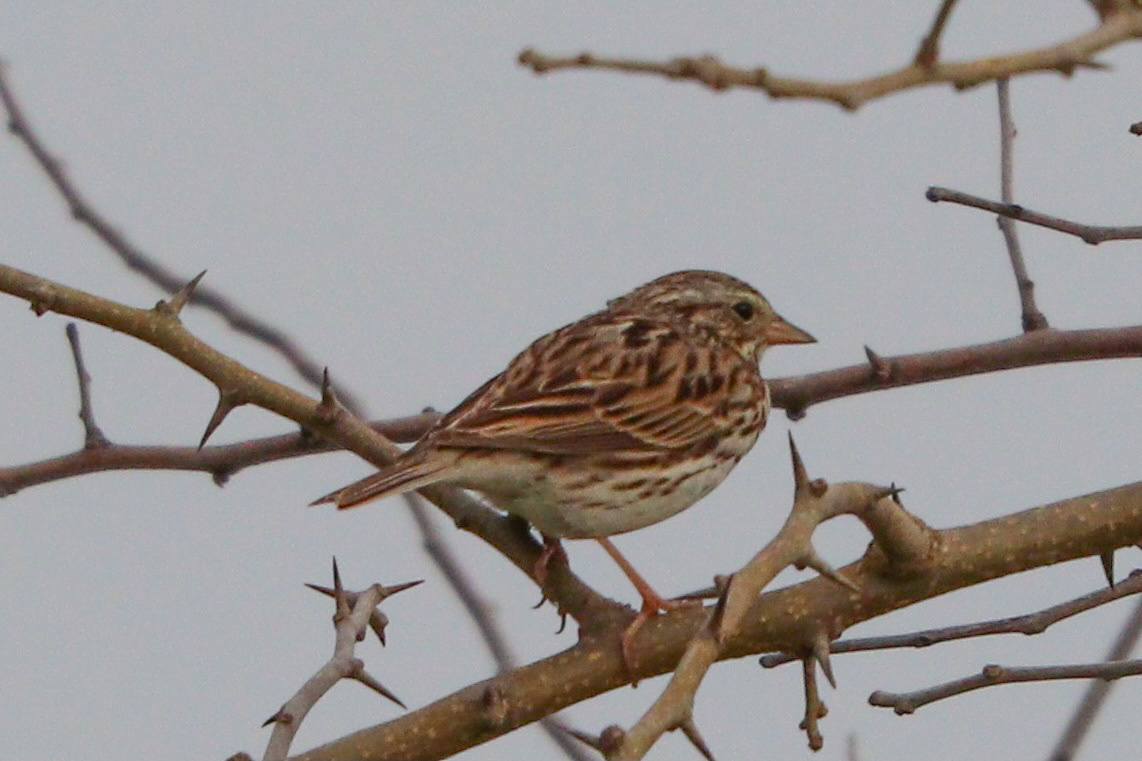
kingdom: Animalia
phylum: Chordata
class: Aves
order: Passeriformes
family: Passerellidae
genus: Passerculus
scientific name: Passerculus sandwichensis
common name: Savannah sparrow
